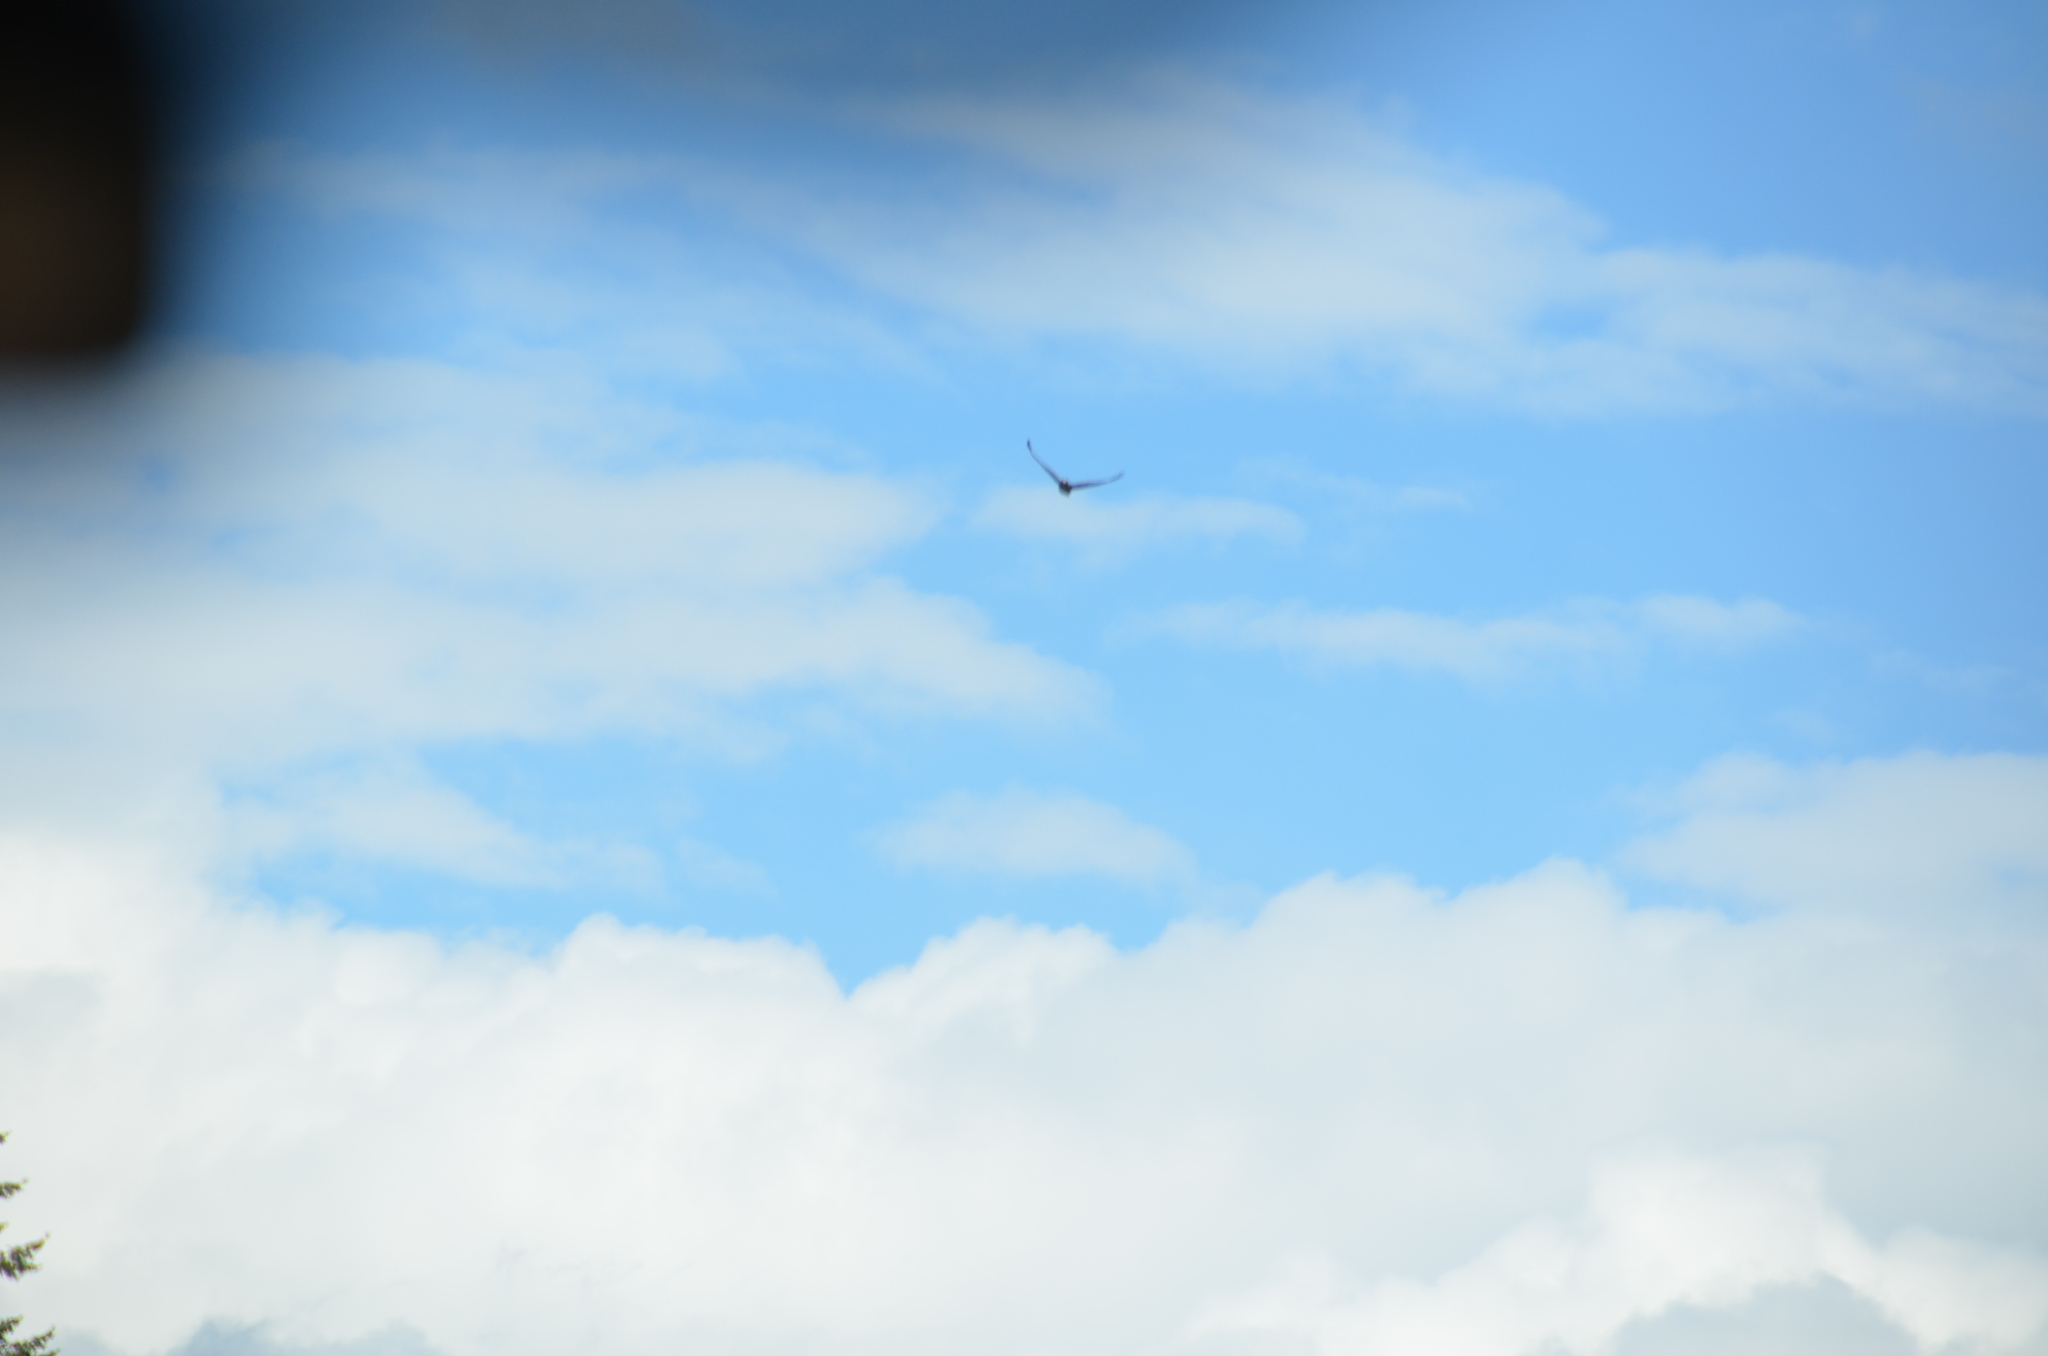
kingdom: Animalia
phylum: Chordata
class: Aves
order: Accipitriformes
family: Cathartidae
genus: Cathartes
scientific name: Cathartes aura
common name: Turkey vulture
